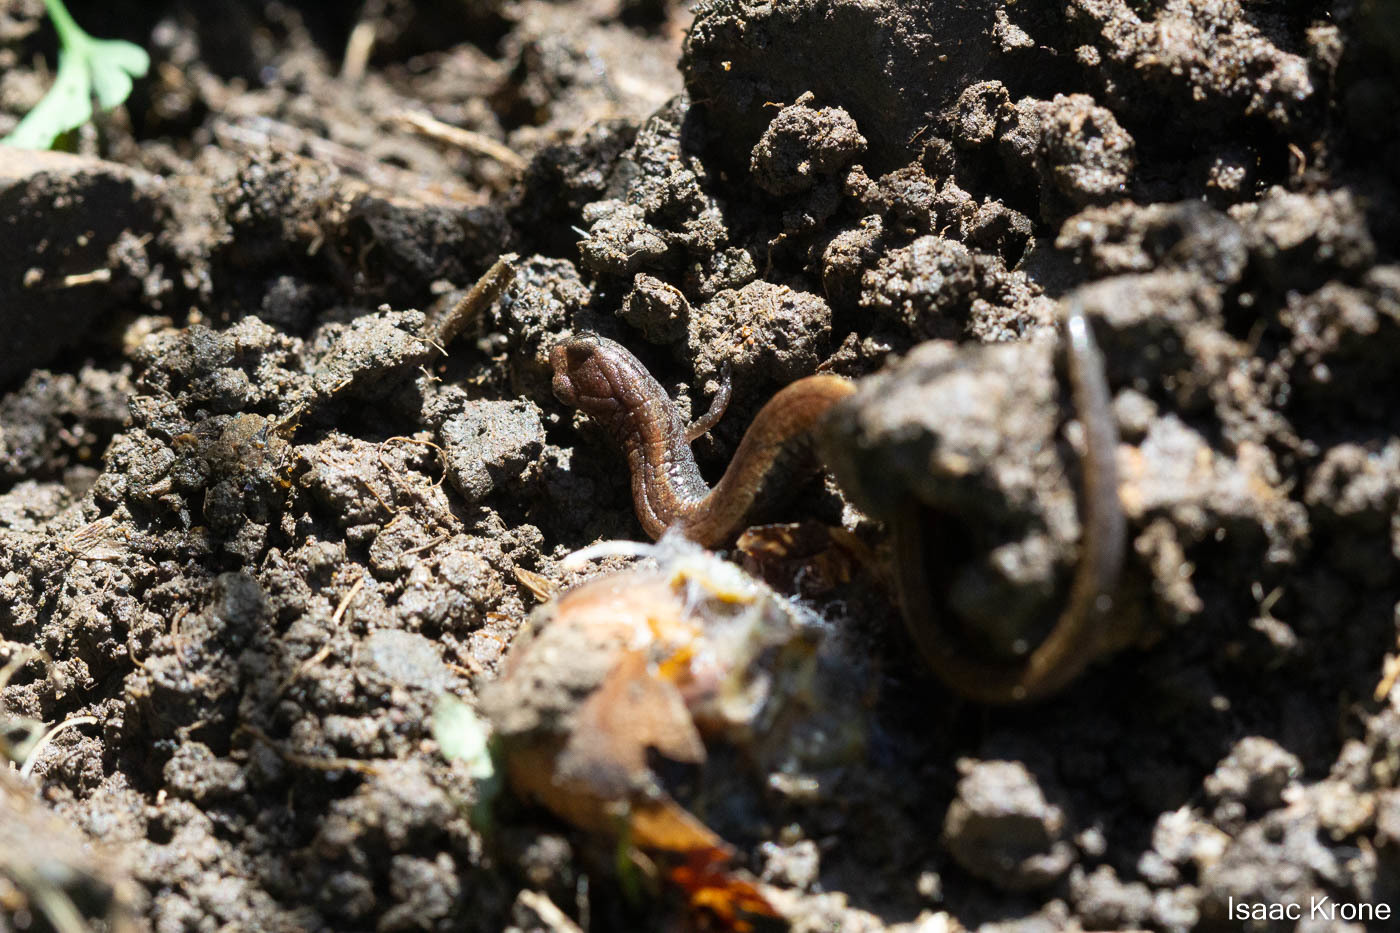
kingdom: Animalia
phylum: Chordata
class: Amphibia
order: Caudata
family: Plethodontidae
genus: Batrachoseps
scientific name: Batrachoseps attenuatus
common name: California slender salamander
